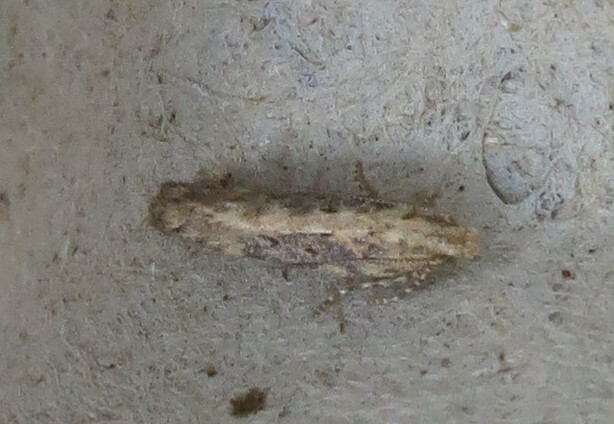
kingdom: Animalia
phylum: Arthropoda
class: Insecta
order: Lepidoptera
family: Gelechiidae
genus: Scrobipalpa
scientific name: Scrobipalpa ocellatella
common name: Beet moth
